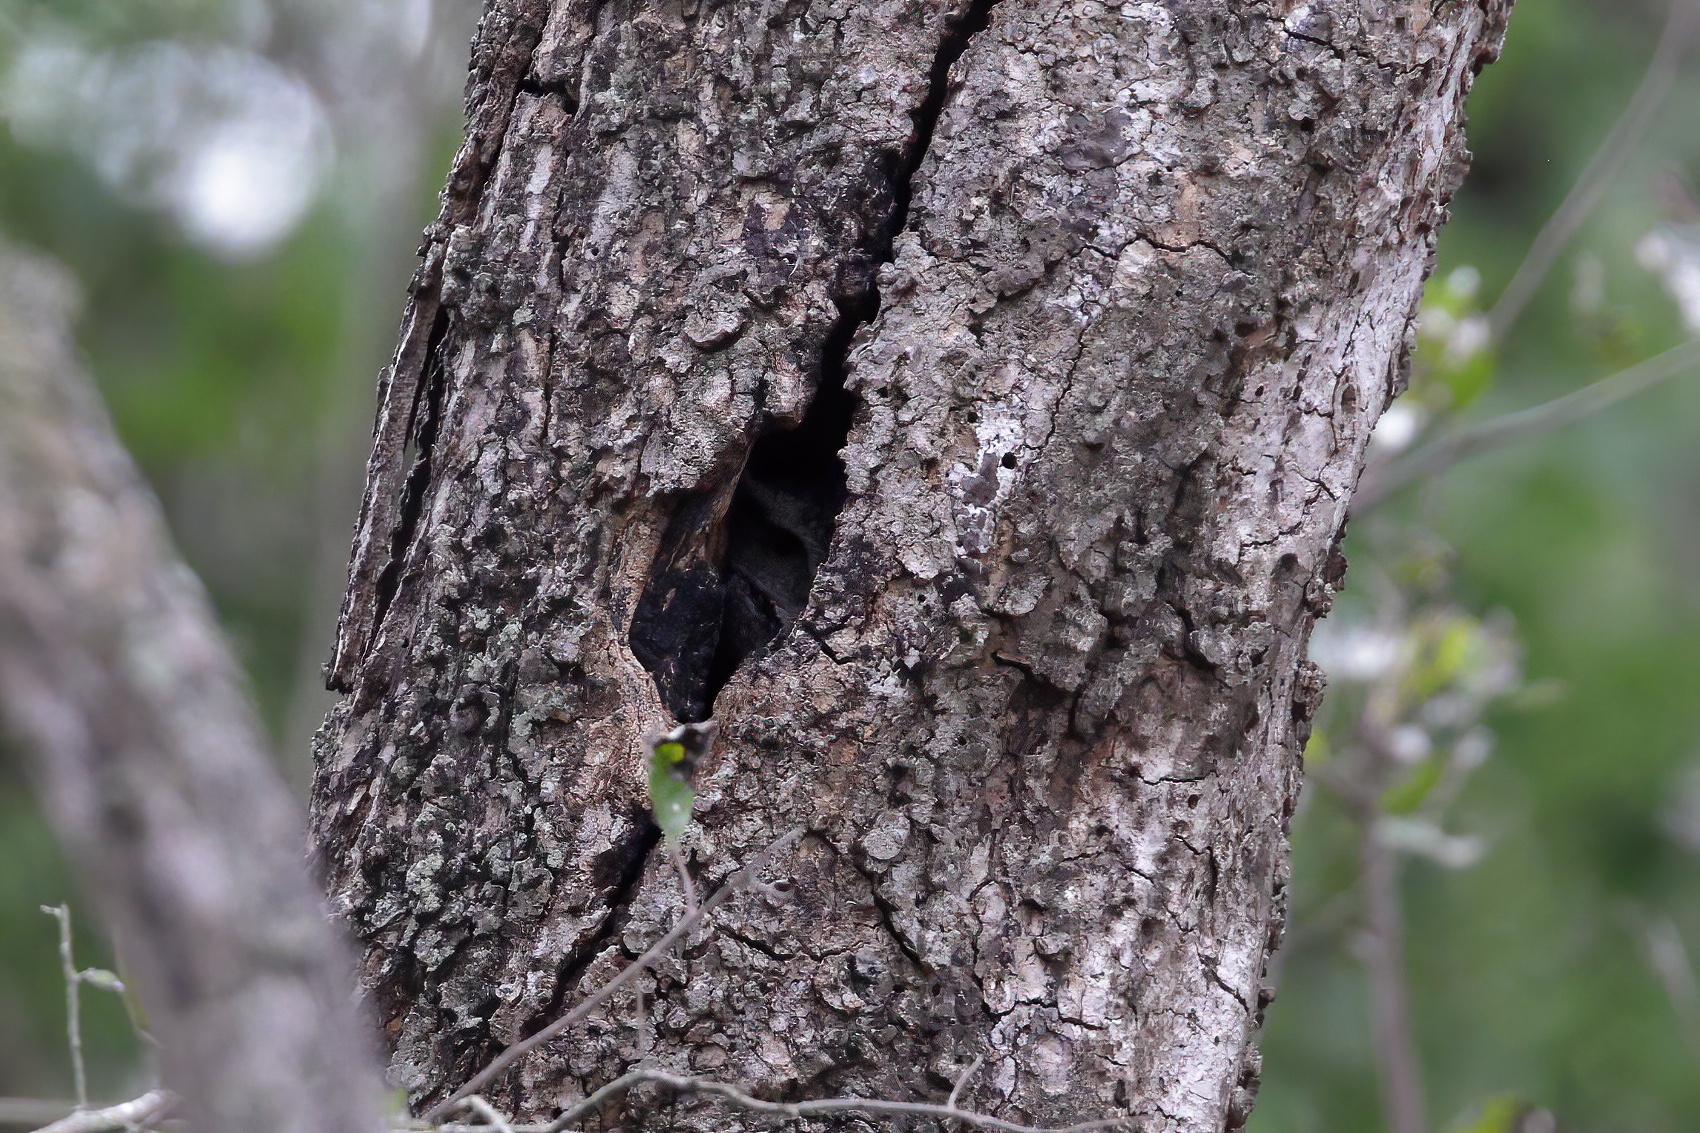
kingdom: Animalia
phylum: Chordata
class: Aves
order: Strigiformes
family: Strigidae
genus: Megascops
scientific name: Megascops asio
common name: Eastern screech-owl
